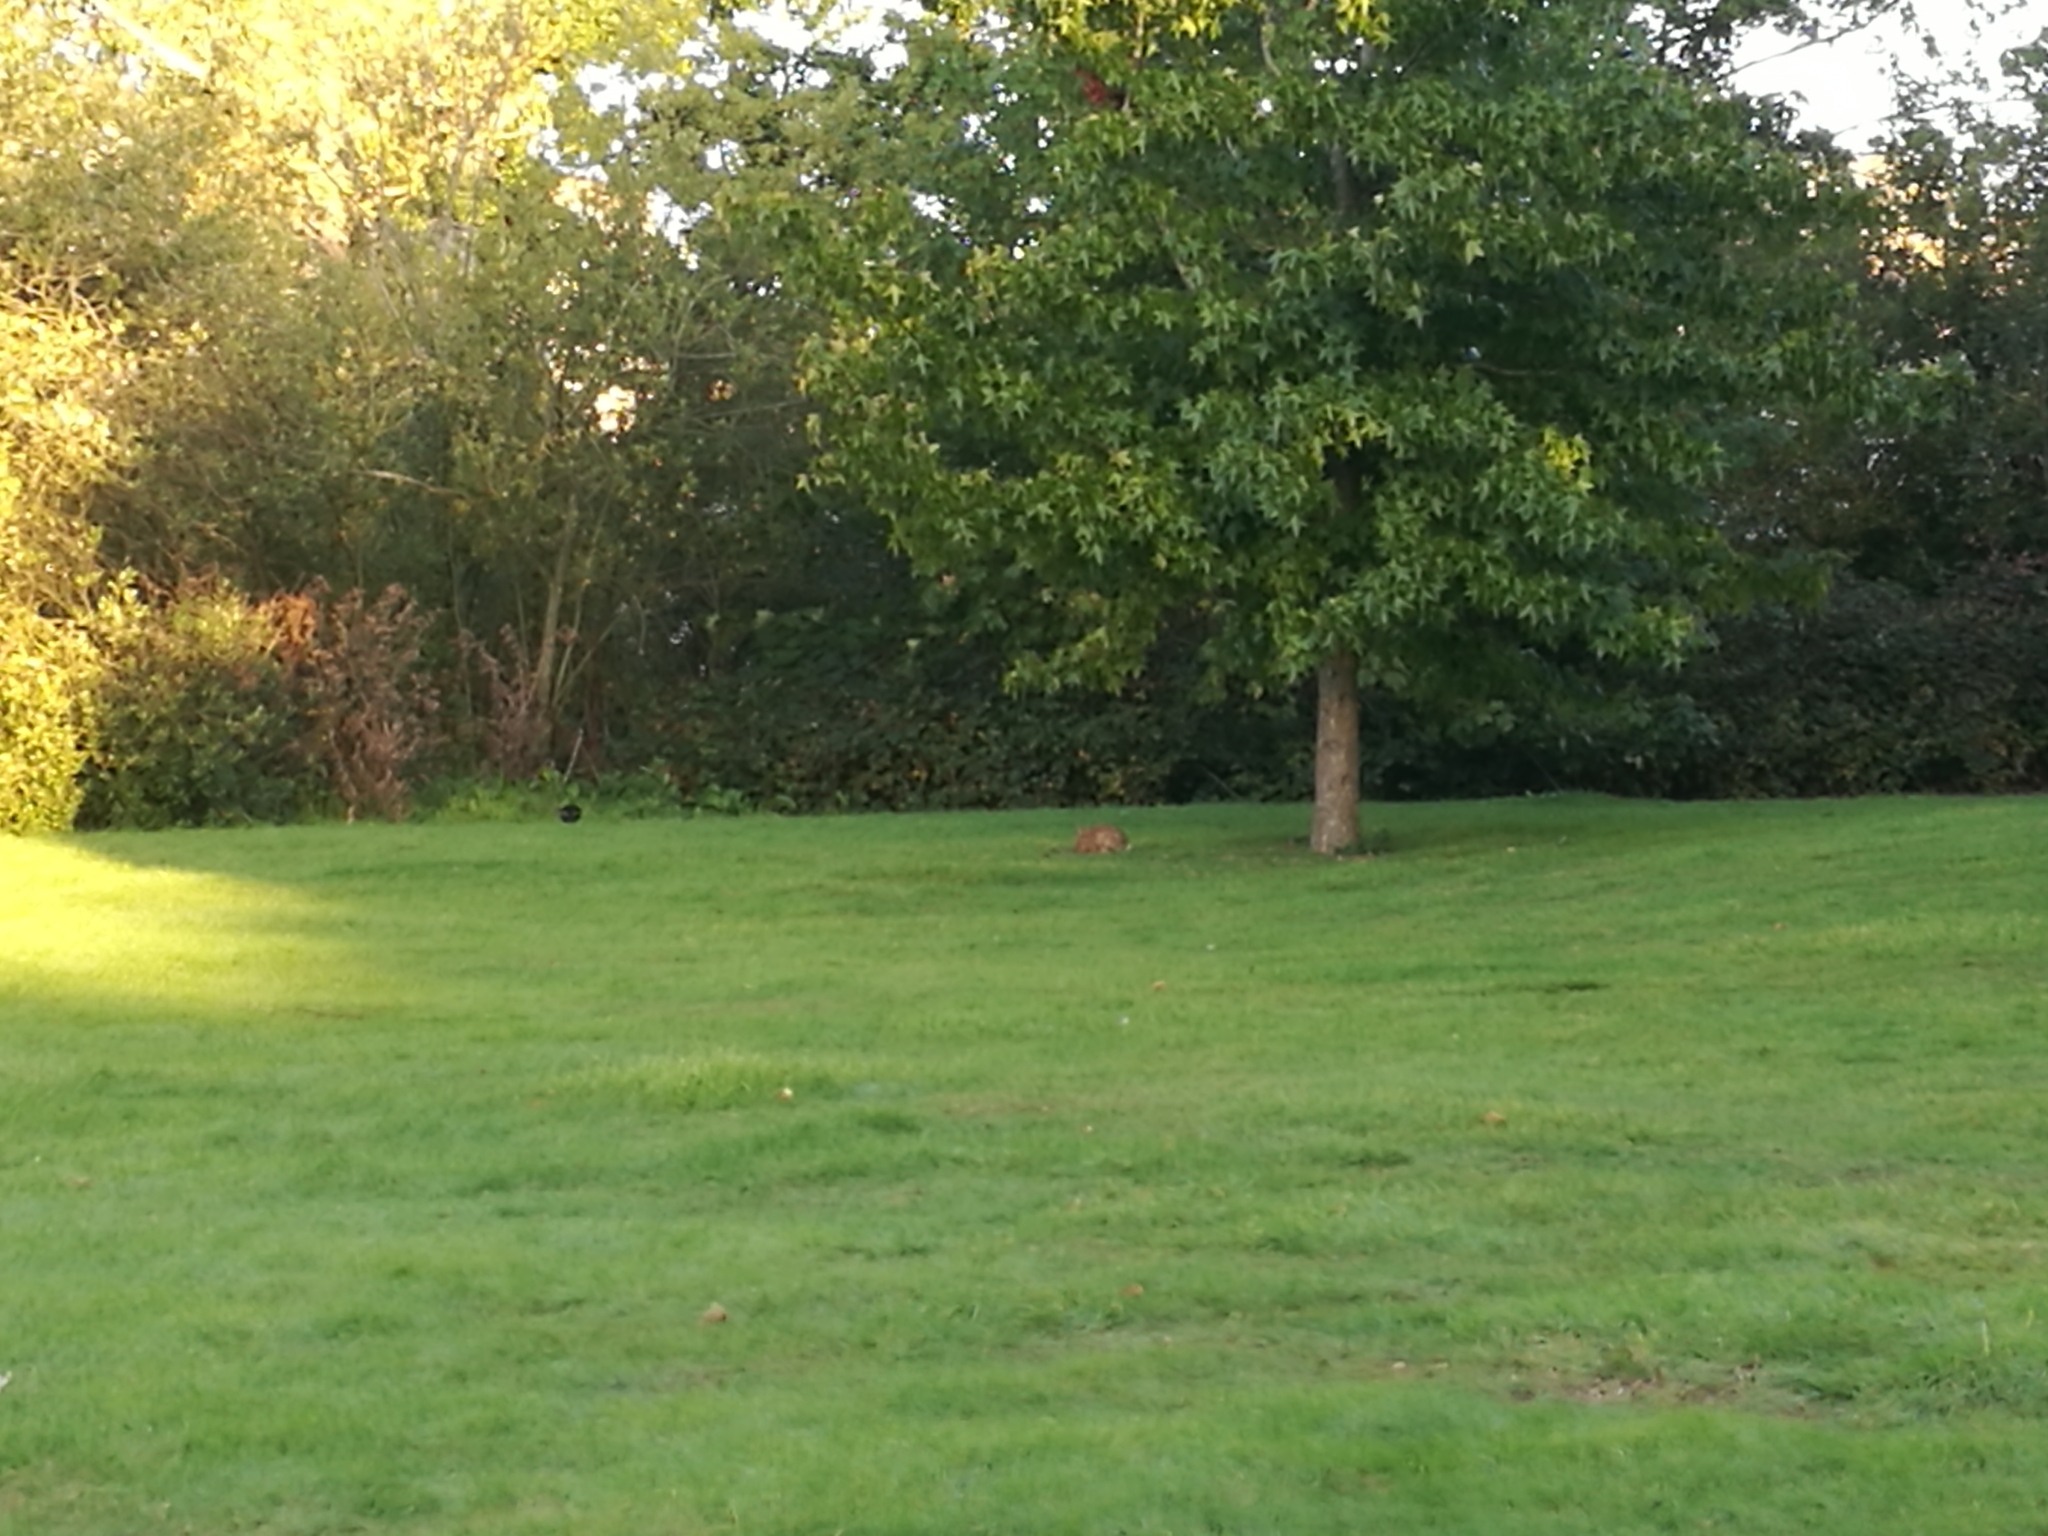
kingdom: Animalia
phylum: Chordata
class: Mammalia
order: Lagomorpha
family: Leporidae
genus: Oryctolagus
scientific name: Oryctolagus cuniculus
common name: European rabbit
